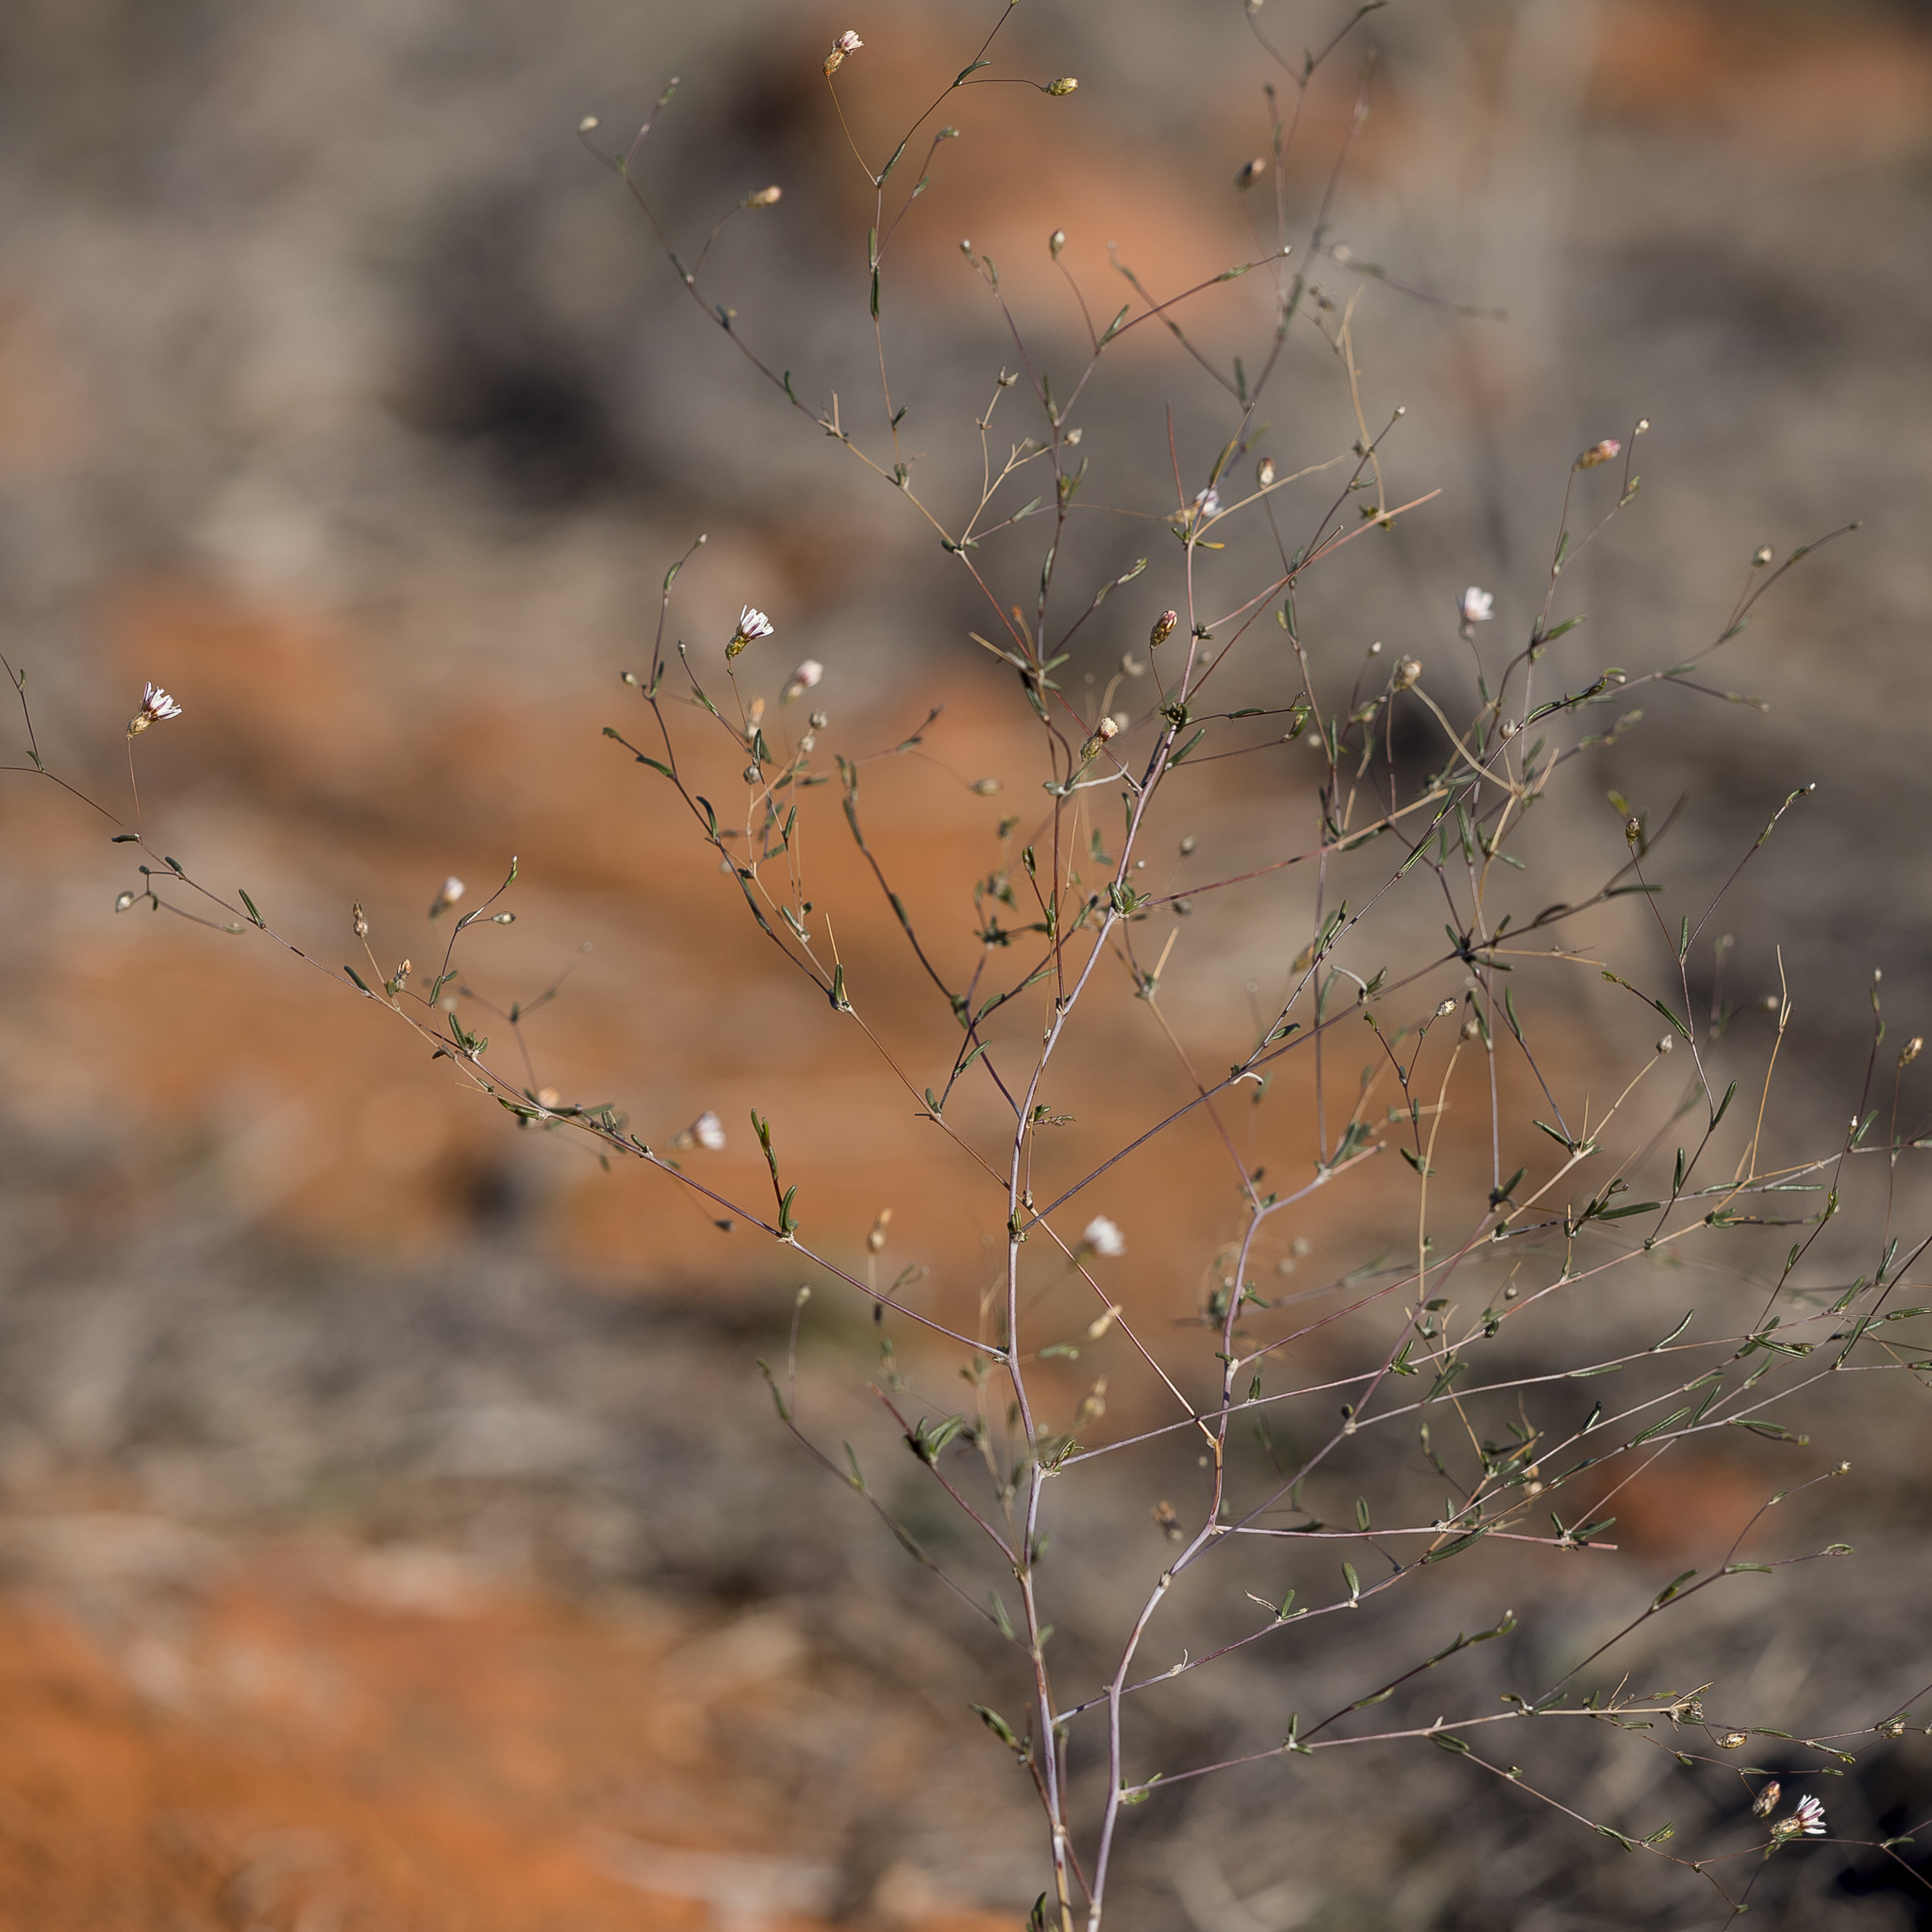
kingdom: Plantae
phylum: Tracheophyta
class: Magnoliopsida
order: Asterales
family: Asteraceae
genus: Siemssenia
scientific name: Siemssenia capillaris
